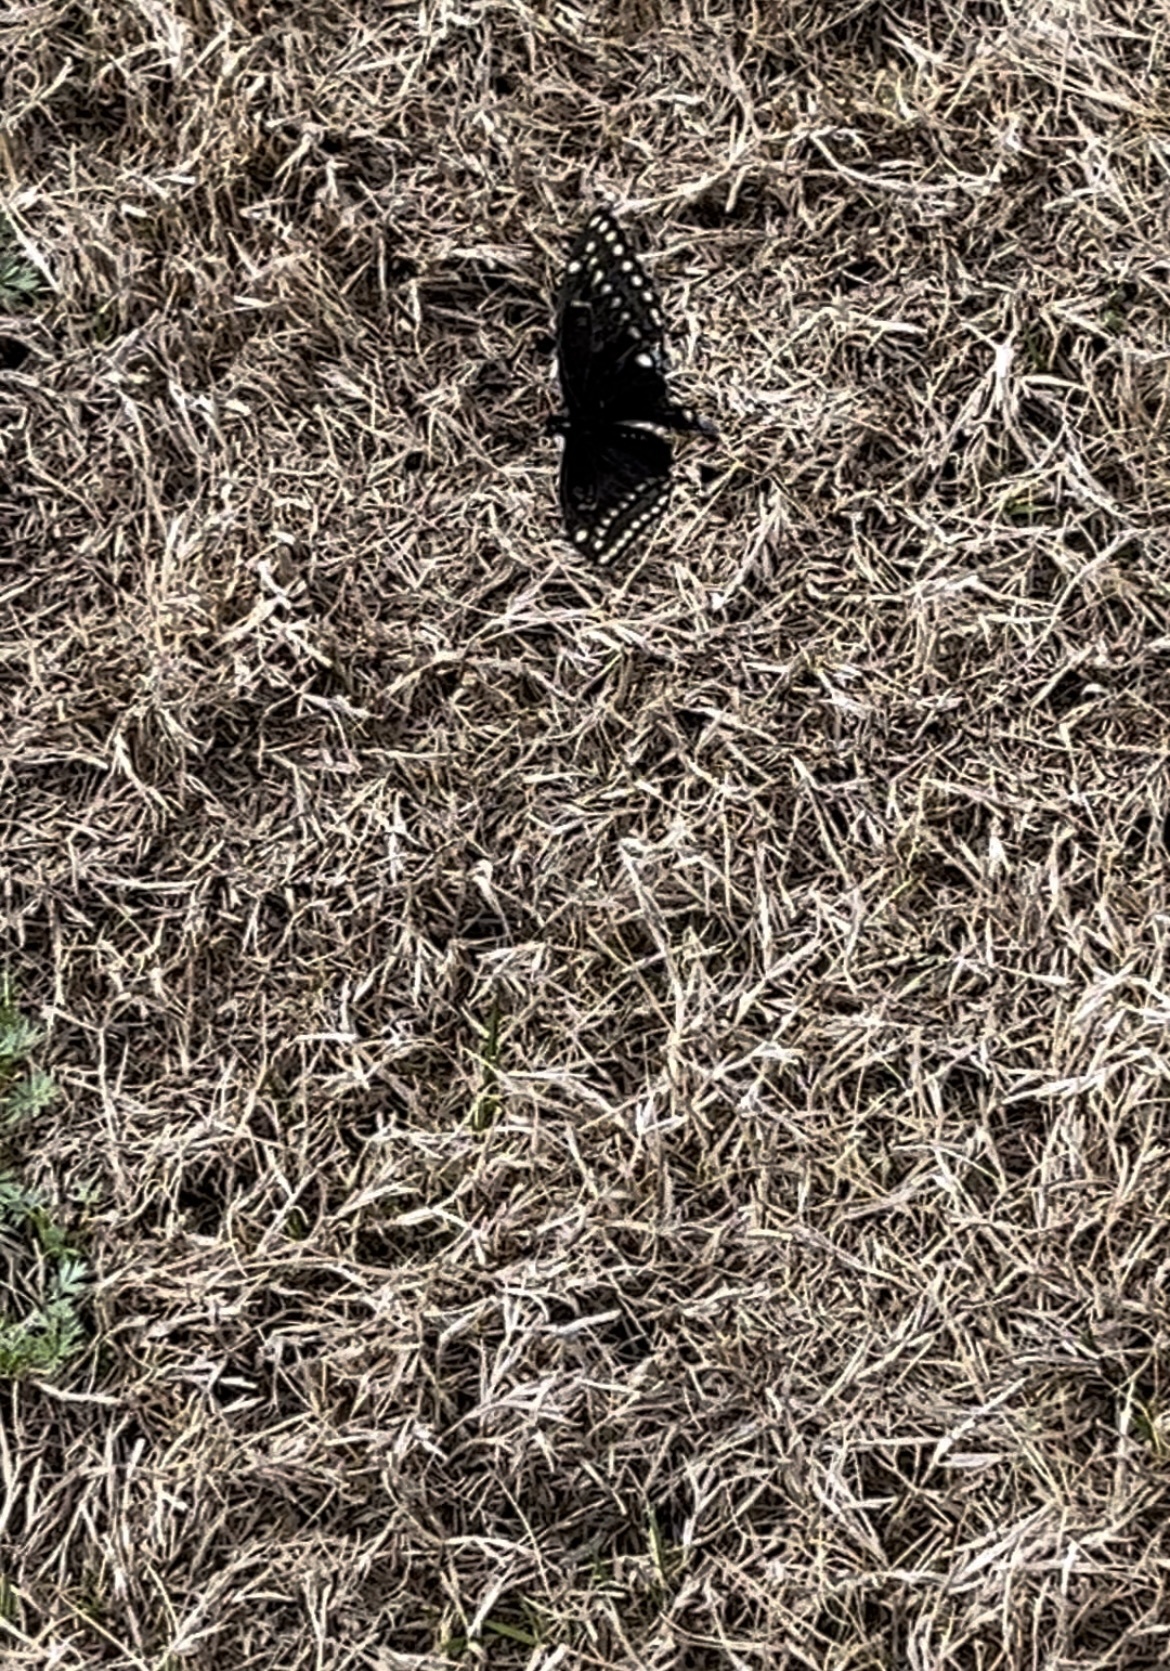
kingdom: Animalia
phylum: Arthropoda
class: Insecta
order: Lepidoptera
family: Papilionidae
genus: Papilio
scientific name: Papilio polyxenes
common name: Black swallowtail
